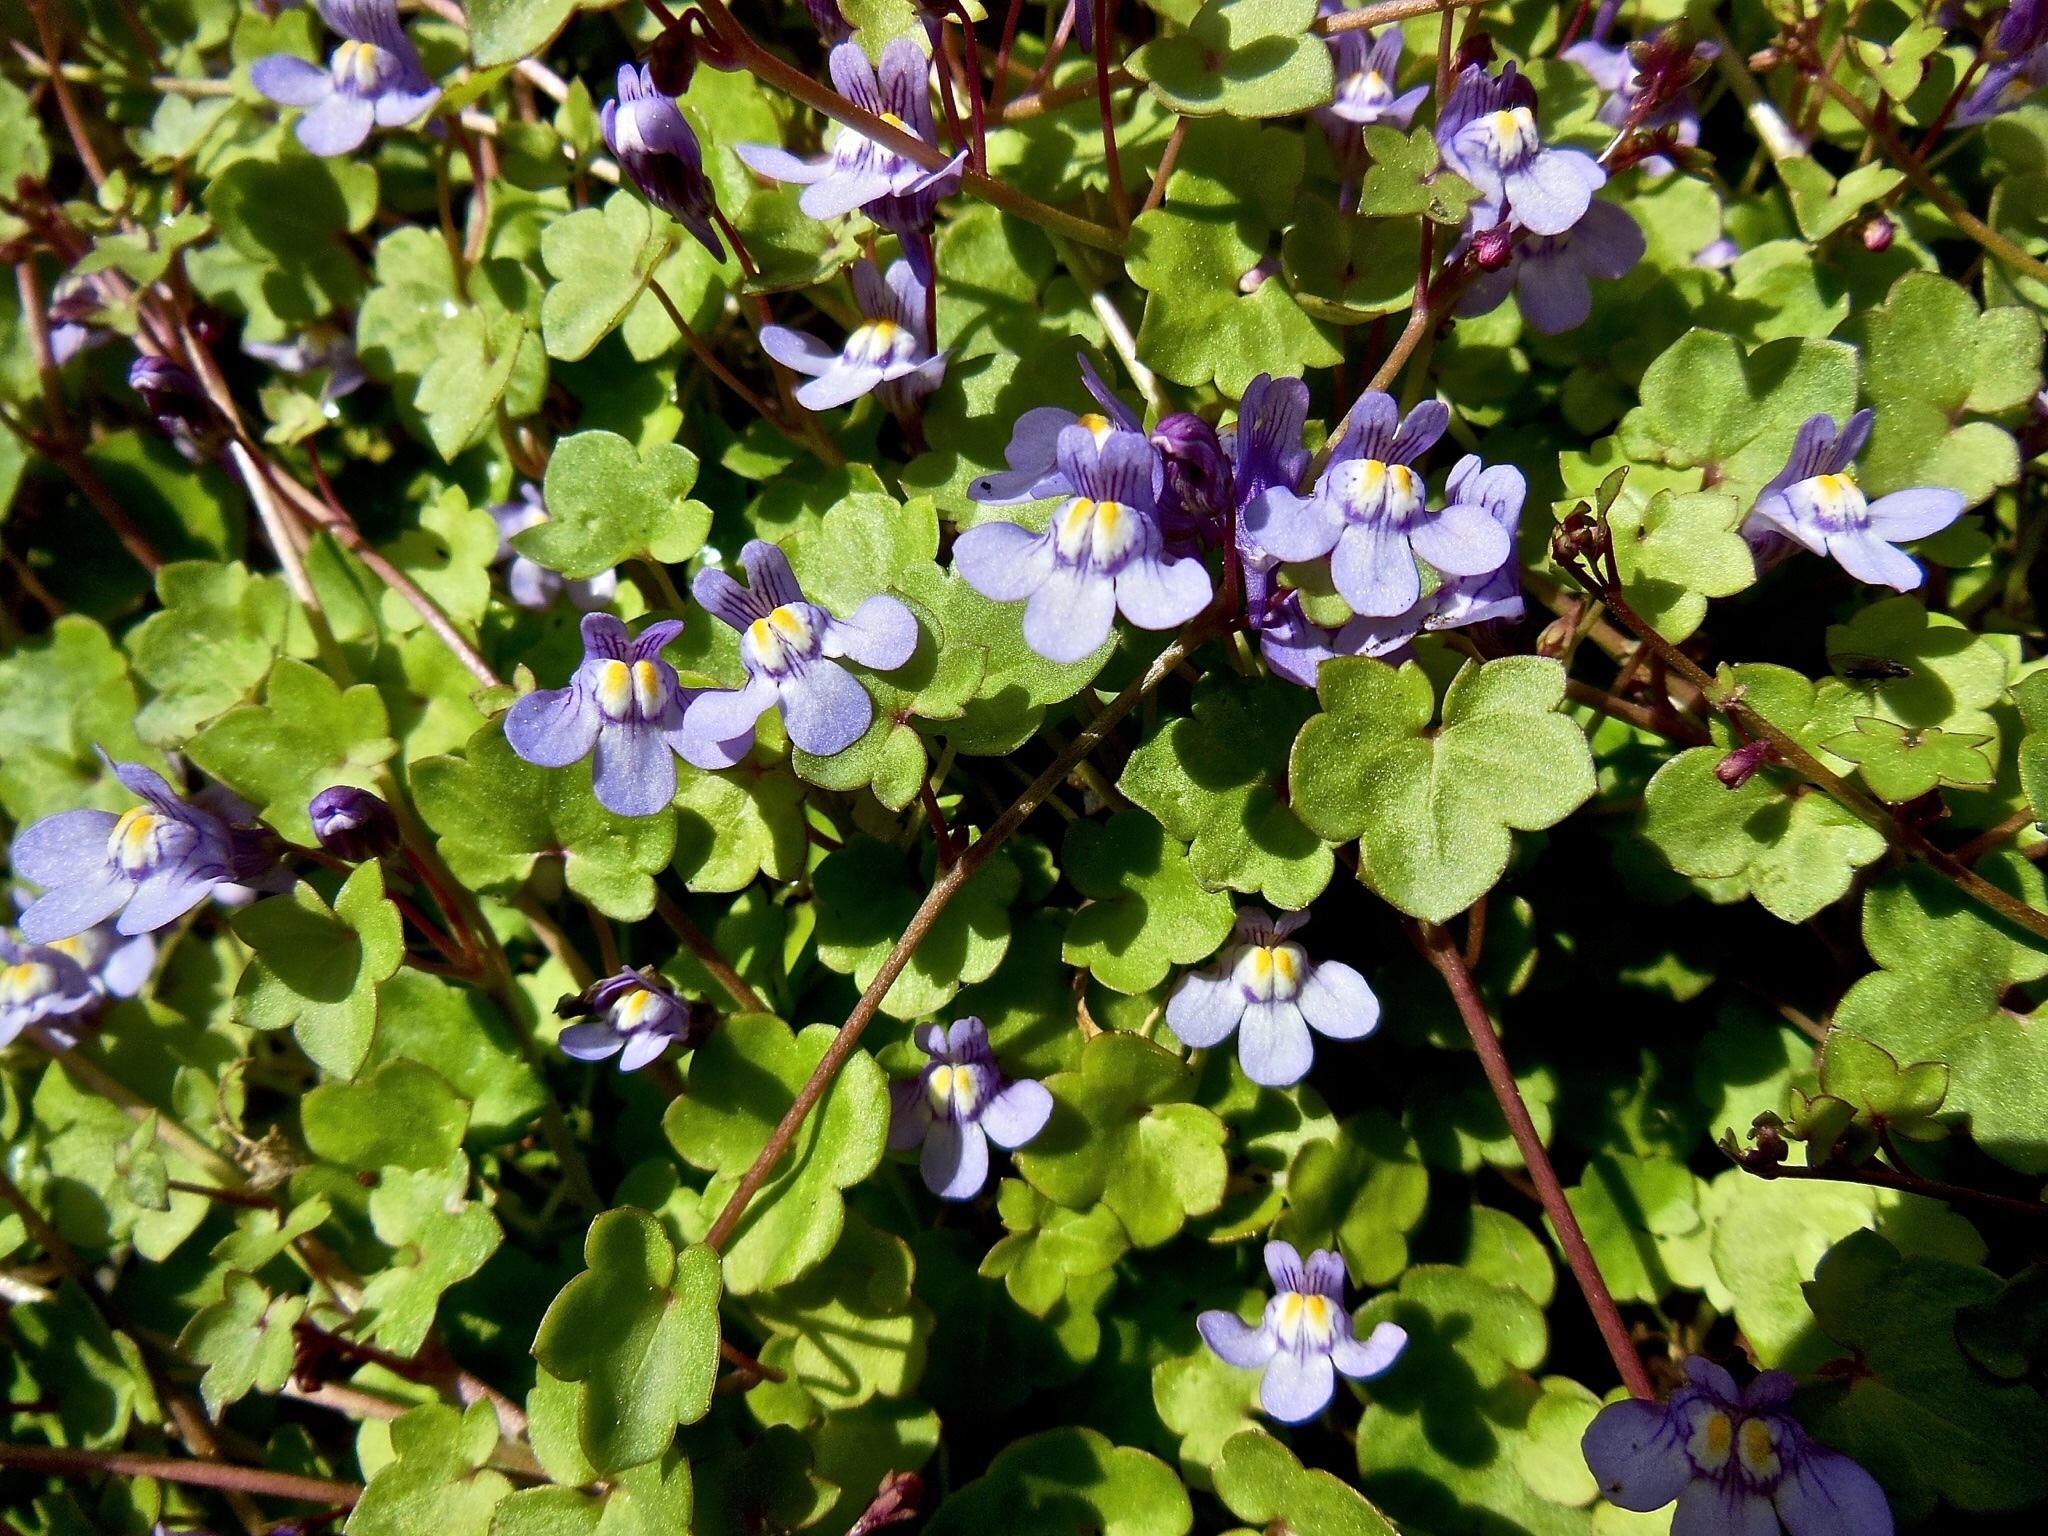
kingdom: Plantae
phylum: Tracheophyta
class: Magnoliopsida
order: Lamiales
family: Plantaginaceae
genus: Cymbalaria
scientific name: Cymbalaria muralis
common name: Ivy-leaved toadflax
